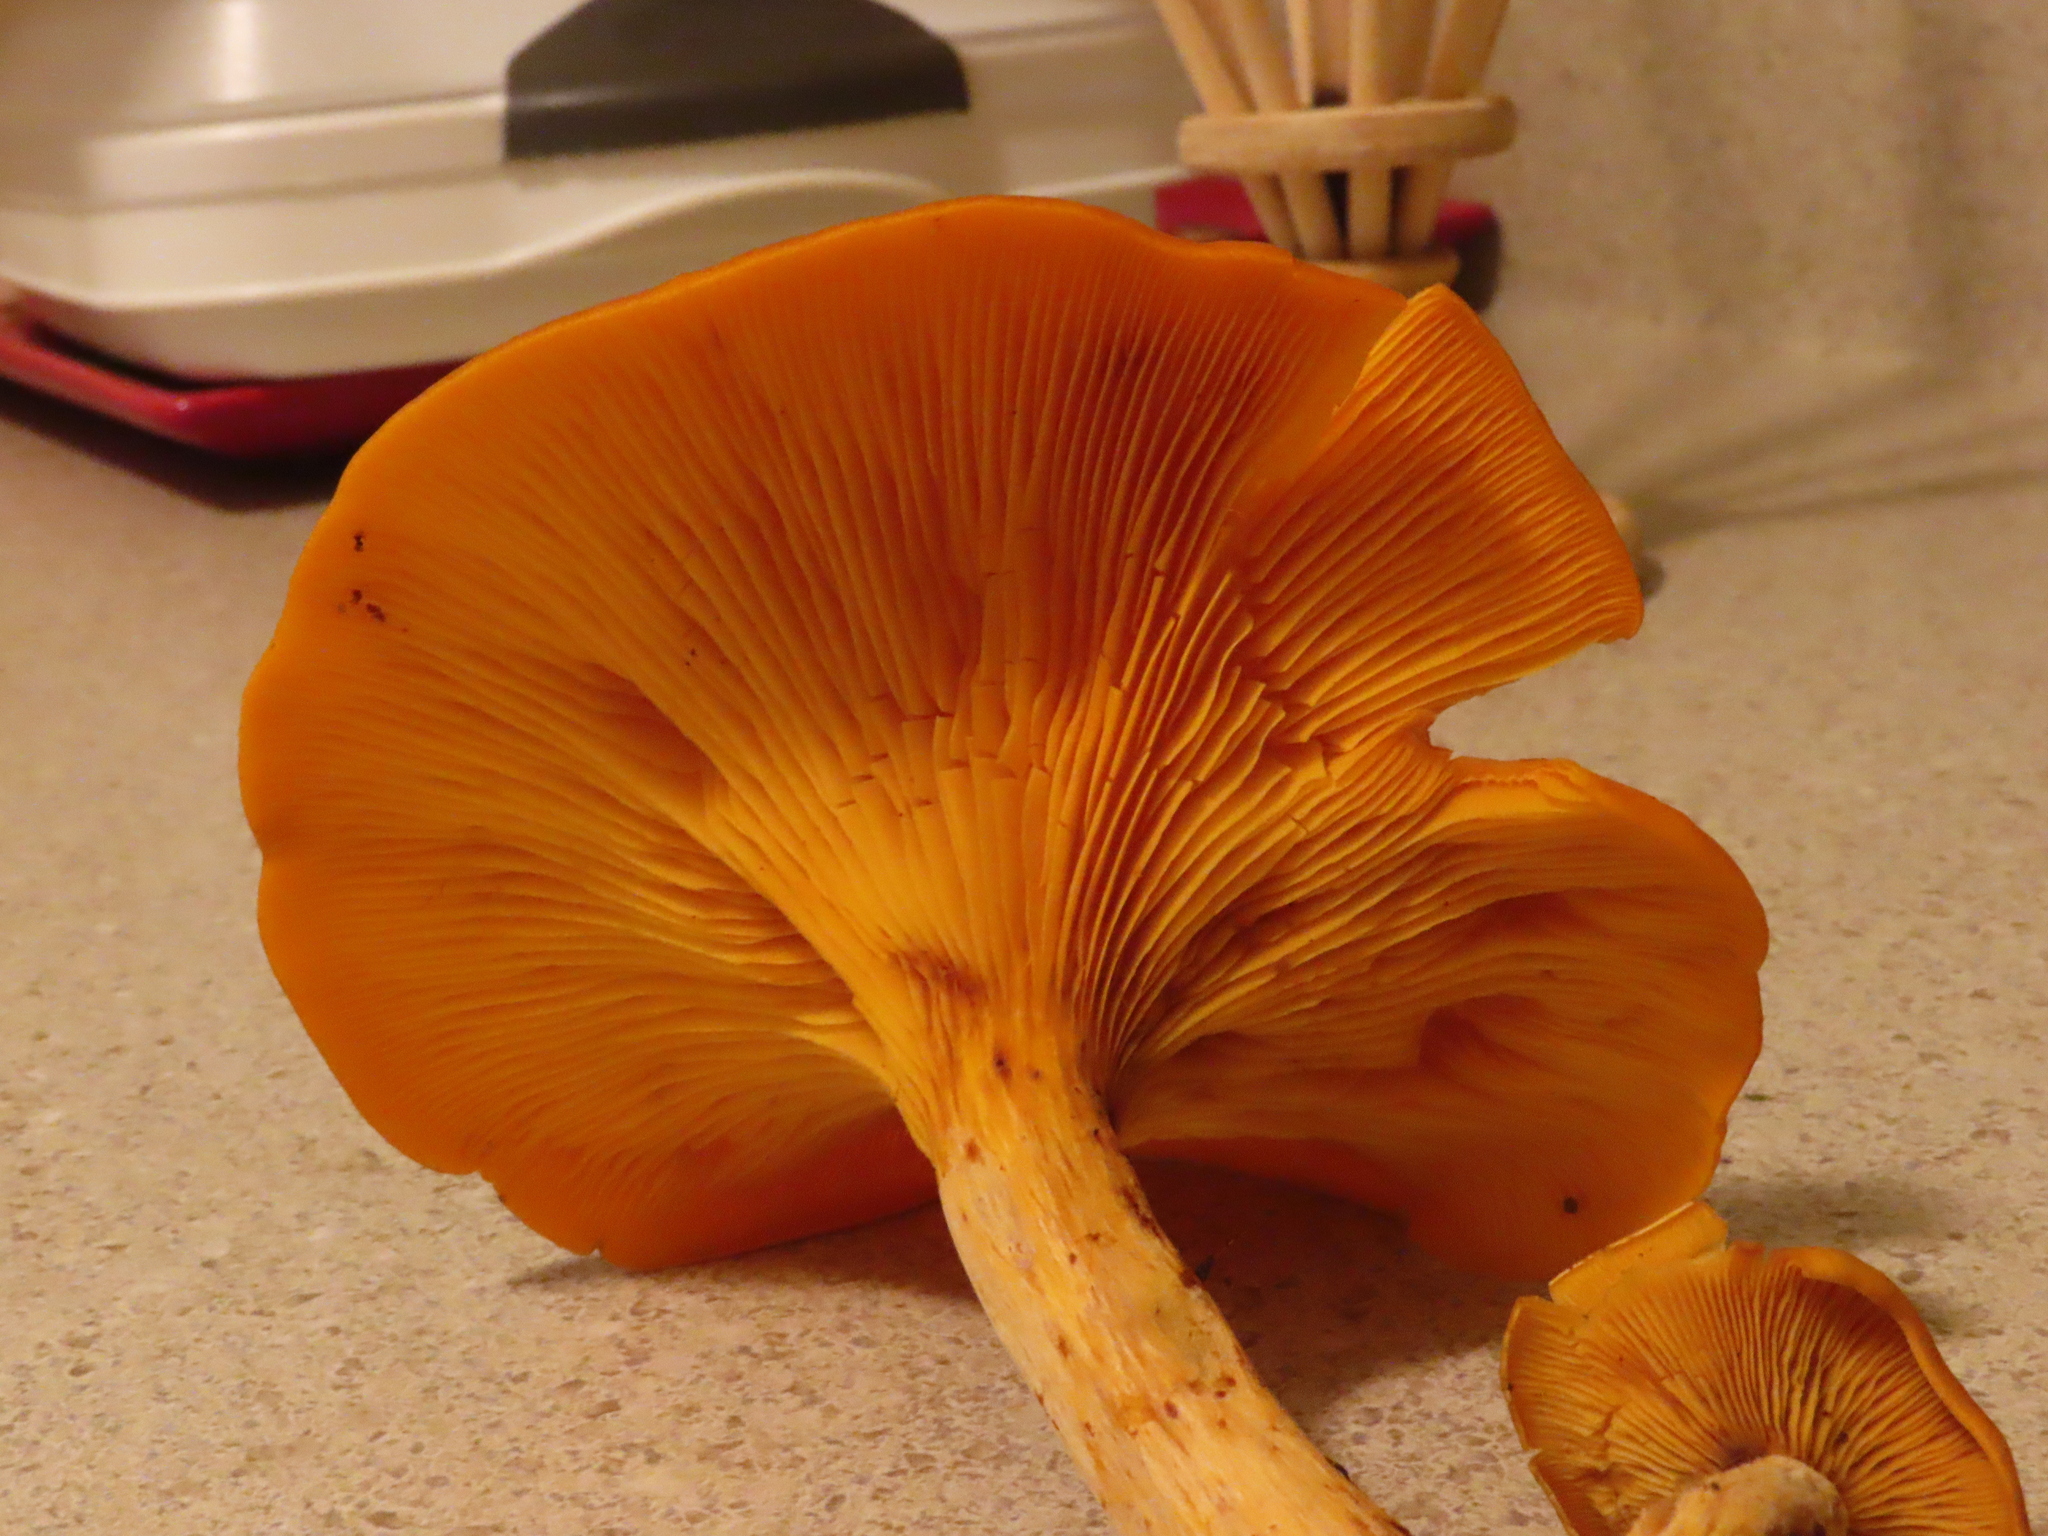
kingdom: Fungi
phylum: Basidiomycota
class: Agaricomycetes
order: Agaricales
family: Omphalotaceae
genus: Omphalotus
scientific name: Omphalotus illudens
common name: Jack o lantern
